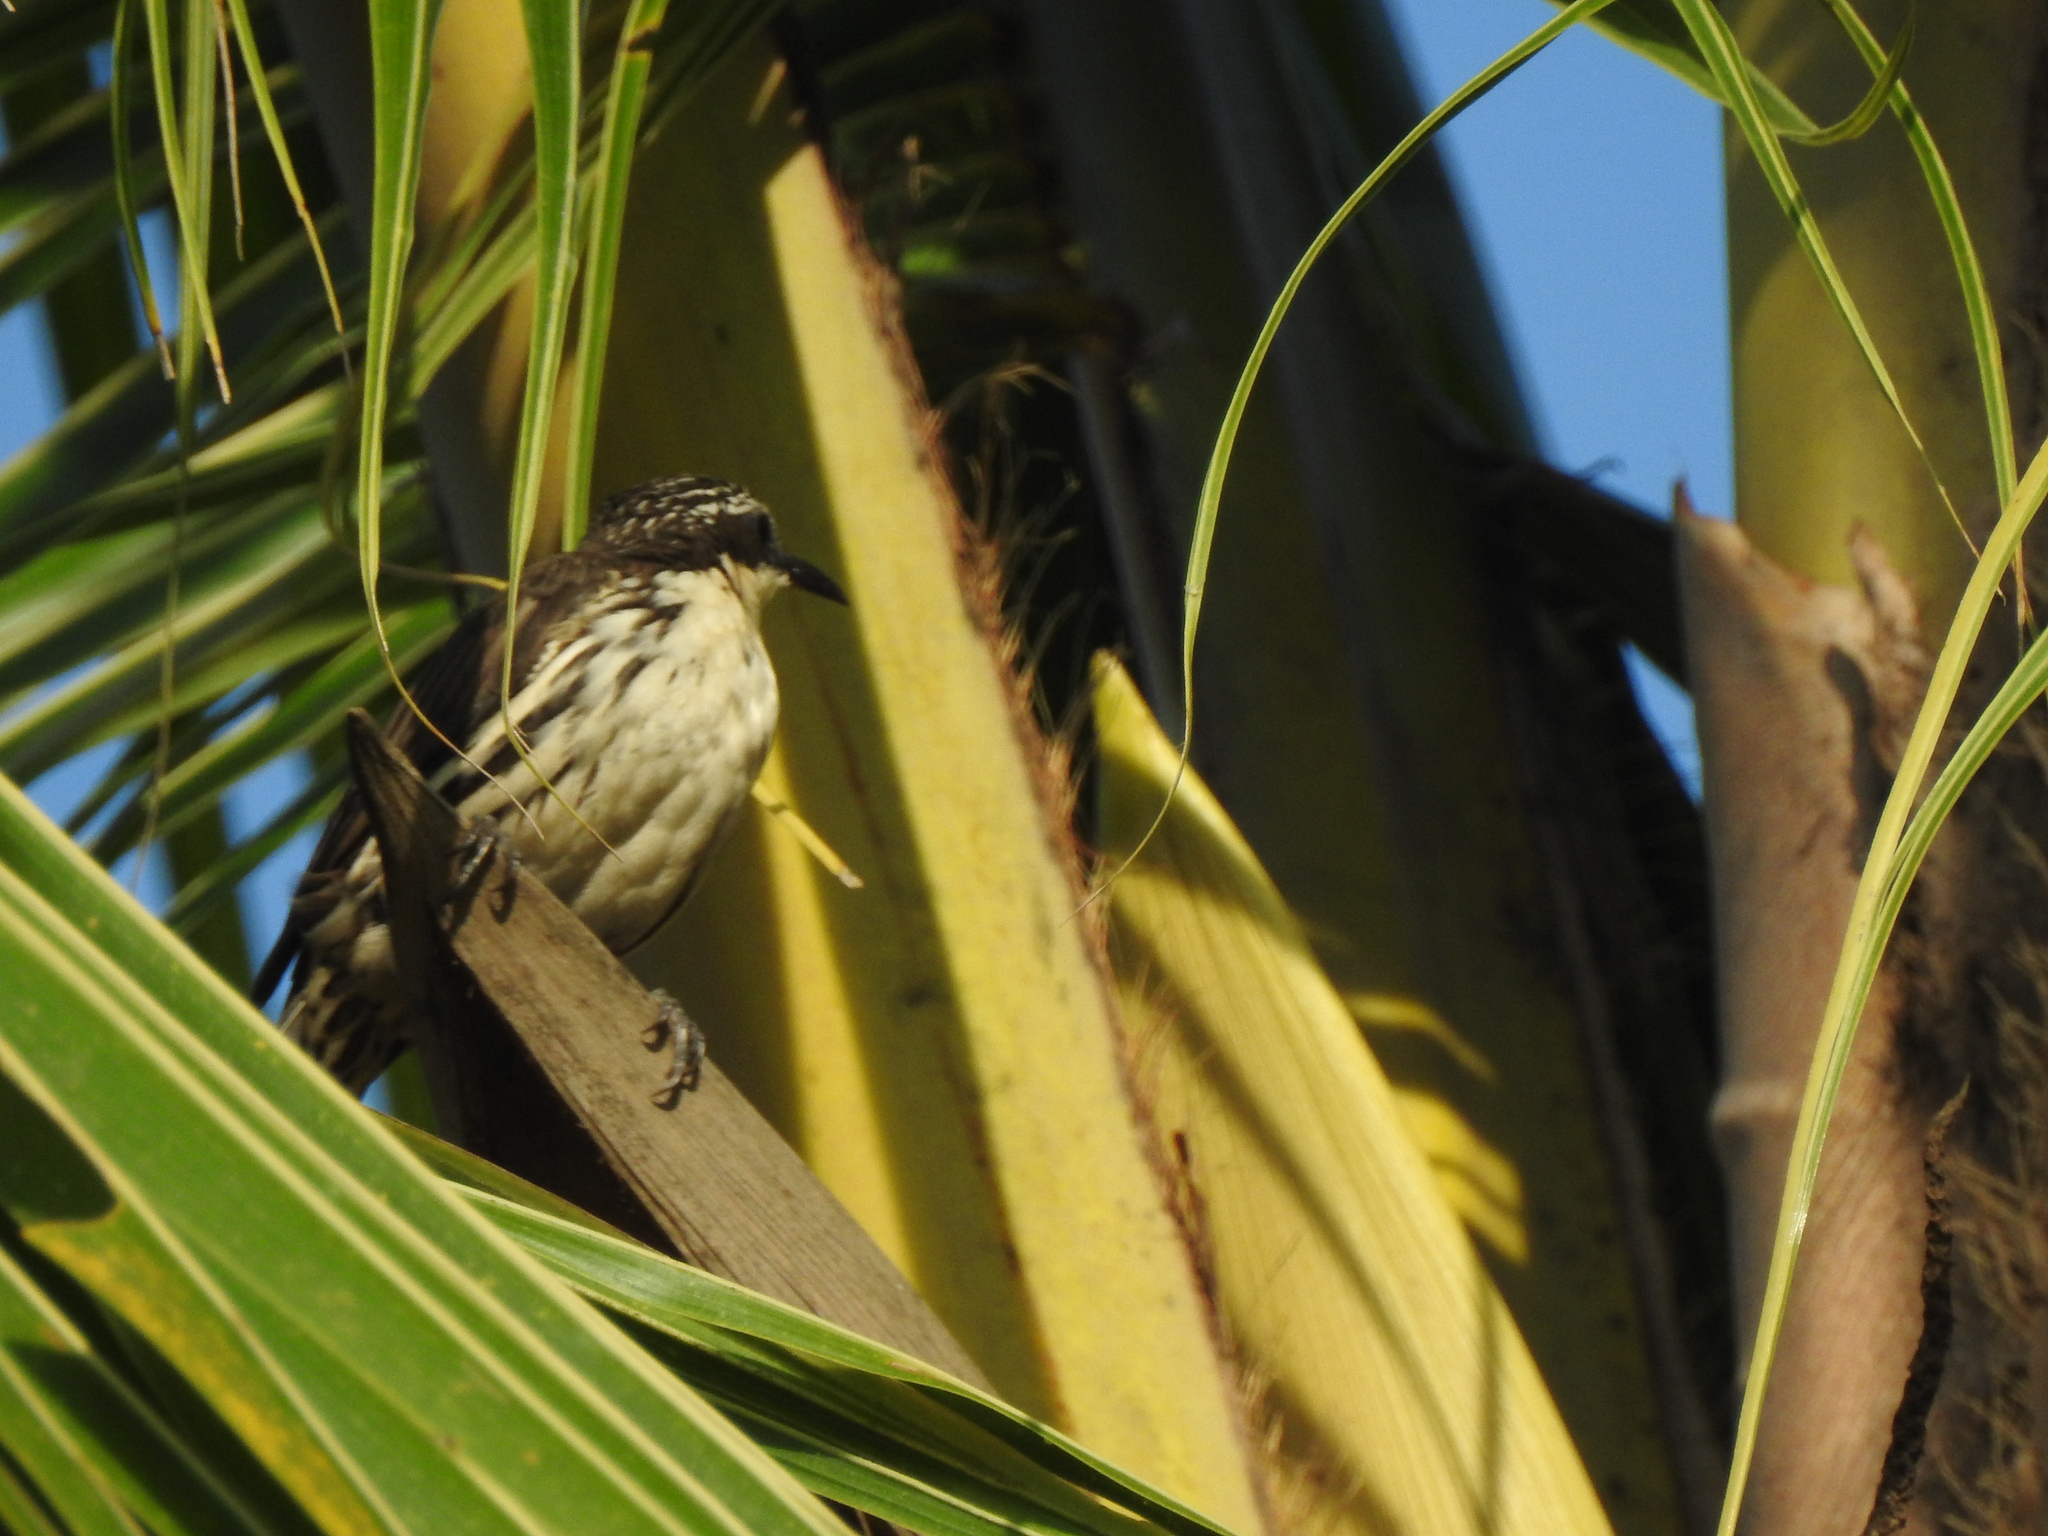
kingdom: Animalia
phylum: Chordata
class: Aves
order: Passeriformes
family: Sturnidae
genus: Rhabdornis
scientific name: Rhabdornis mystacalis
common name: Stripe-headed rhabdornis
